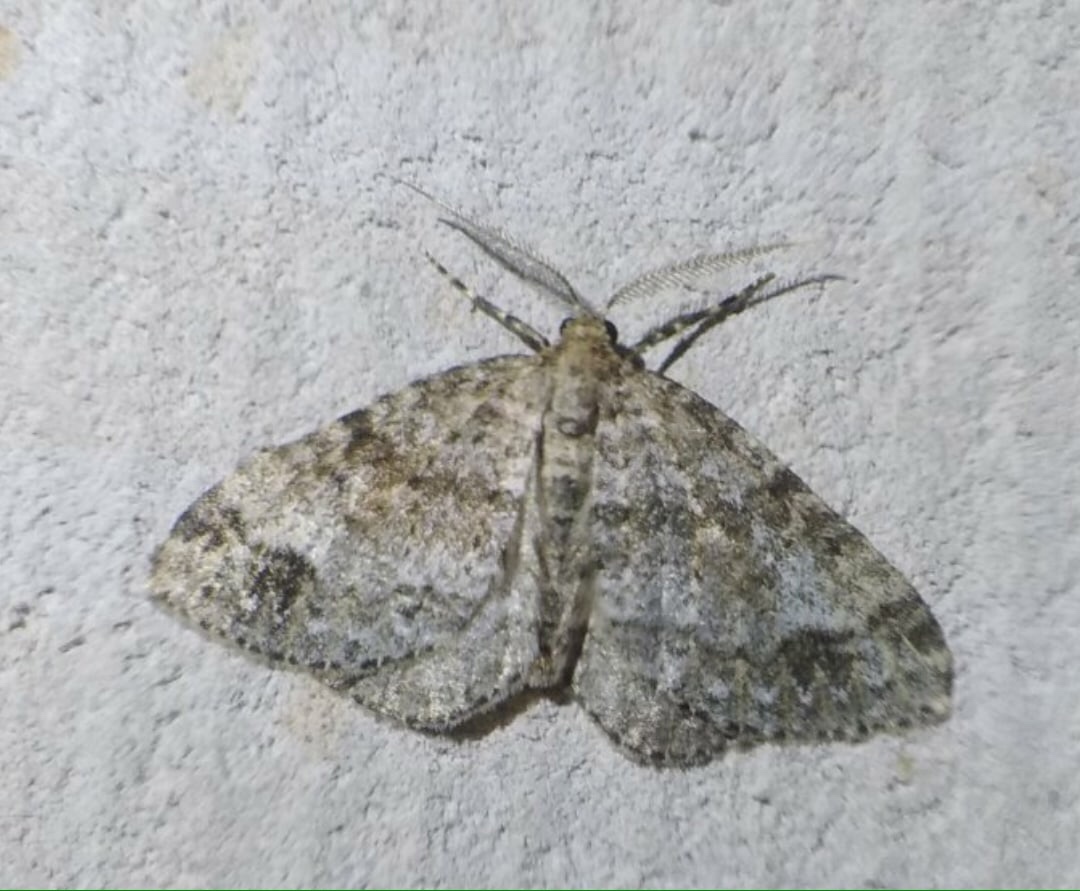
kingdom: Animalia
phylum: Arthropoda
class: Insecta
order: Lepidoptera
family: Geometridae
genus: Perizoma
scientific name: Perizoma didymata
